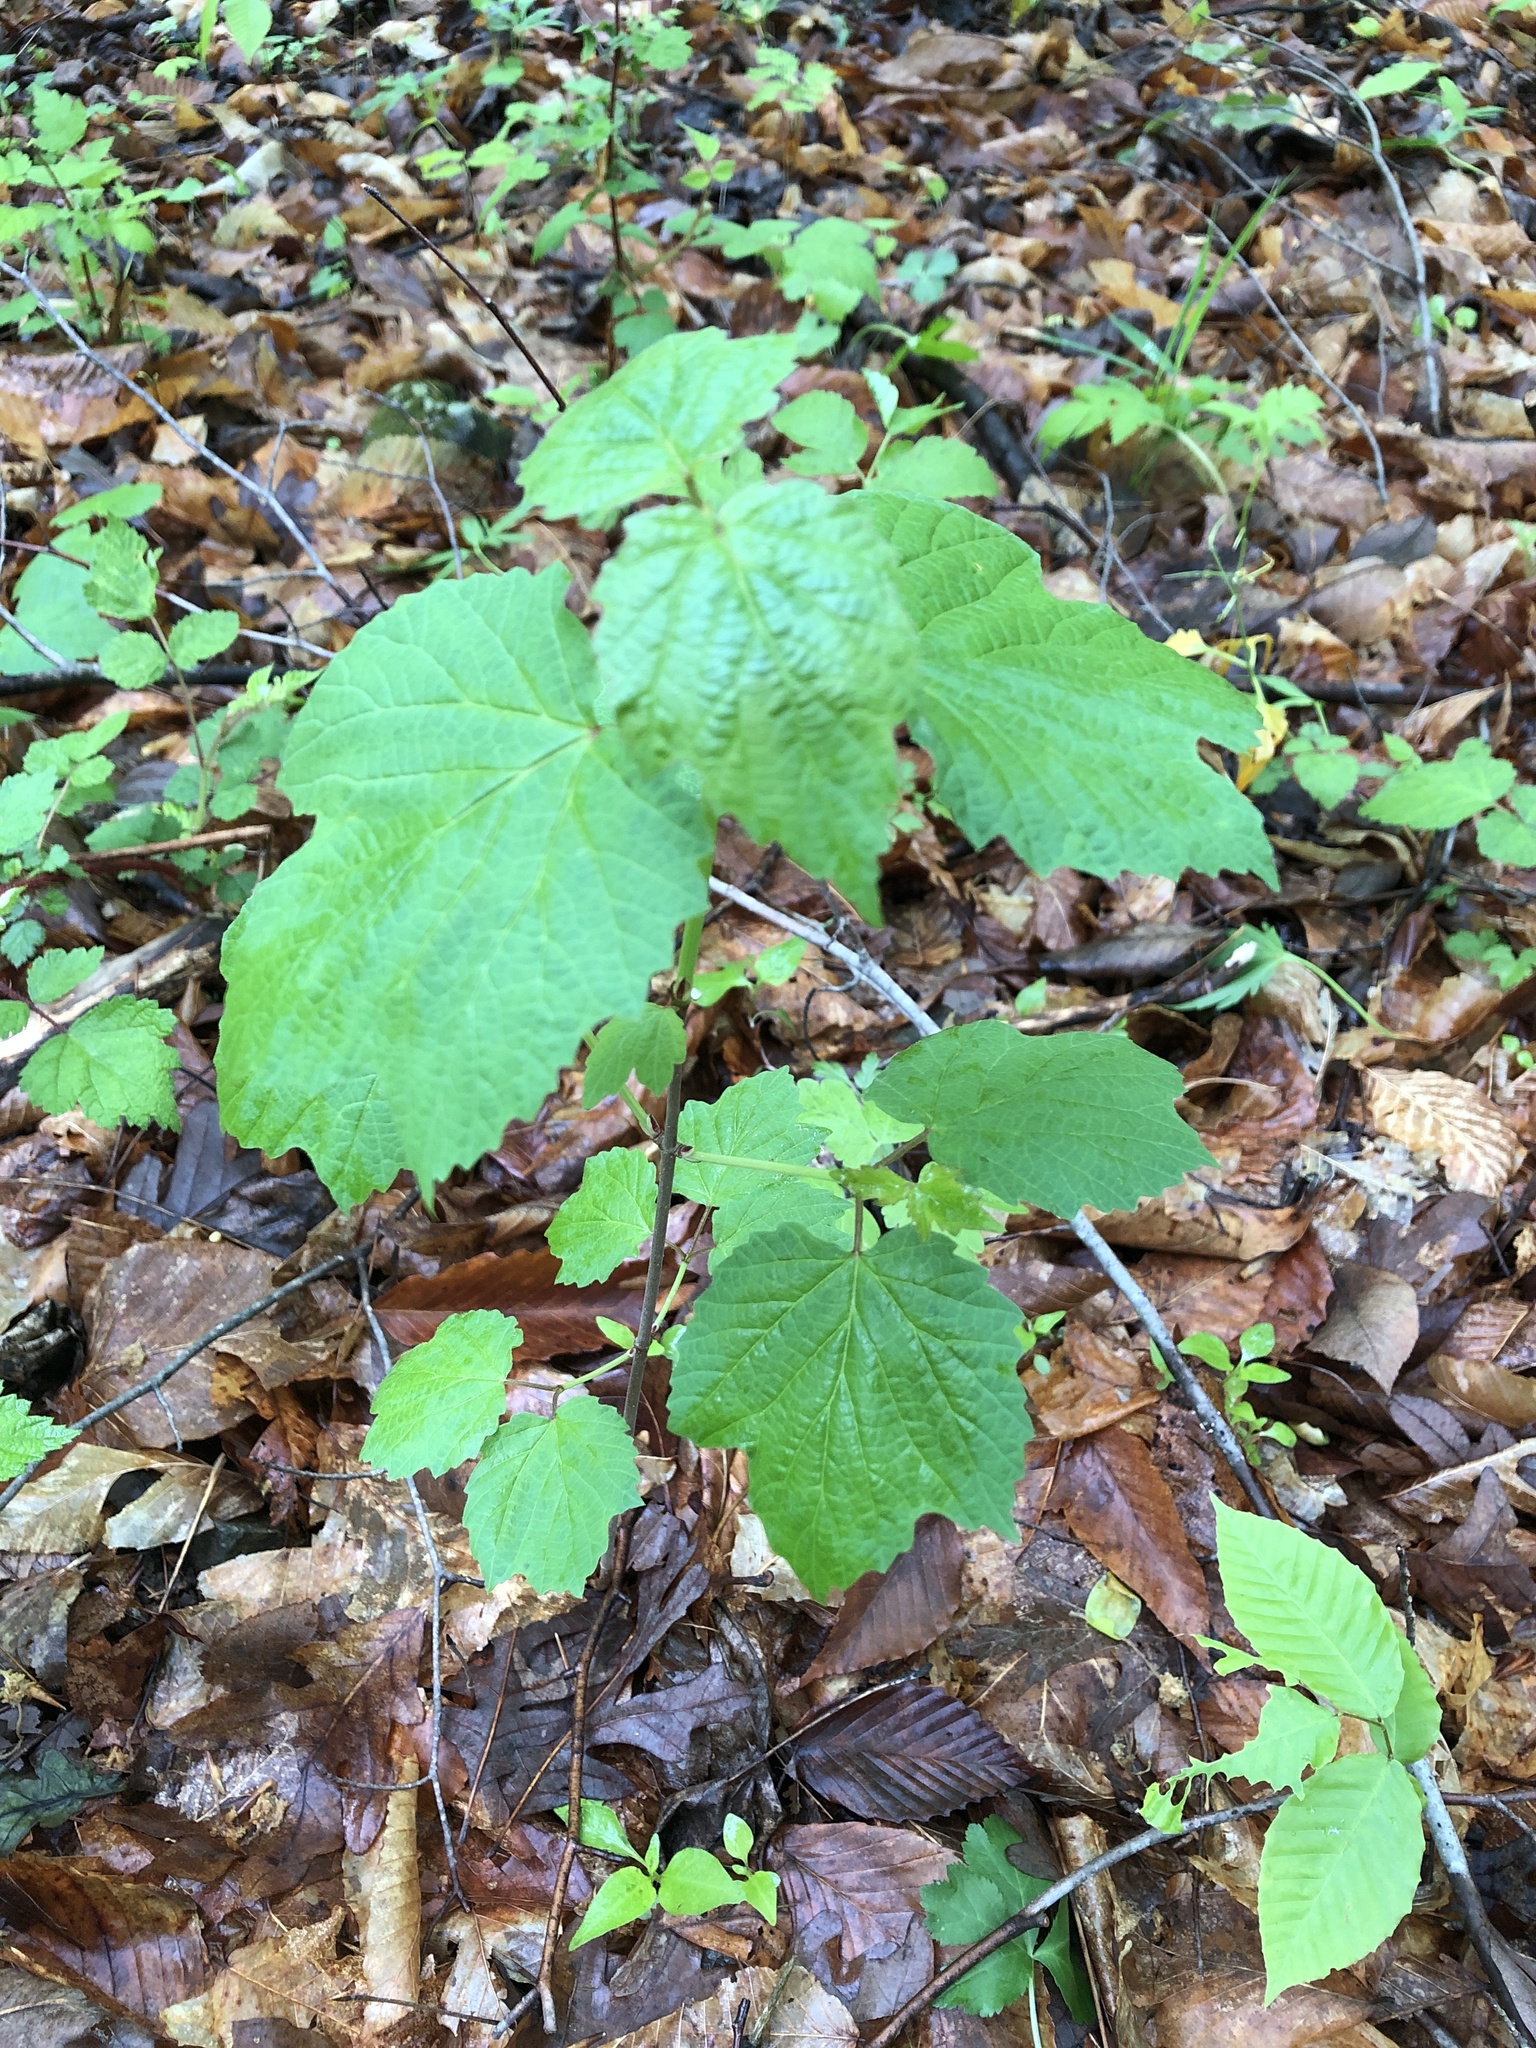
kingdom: Plantae
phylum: Tracheophyta
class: Magnoliopsida
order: Dipsacales
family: Viburnaceae
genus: Viburnum
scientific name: Viburnum acerifolium
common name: Dockmackie
